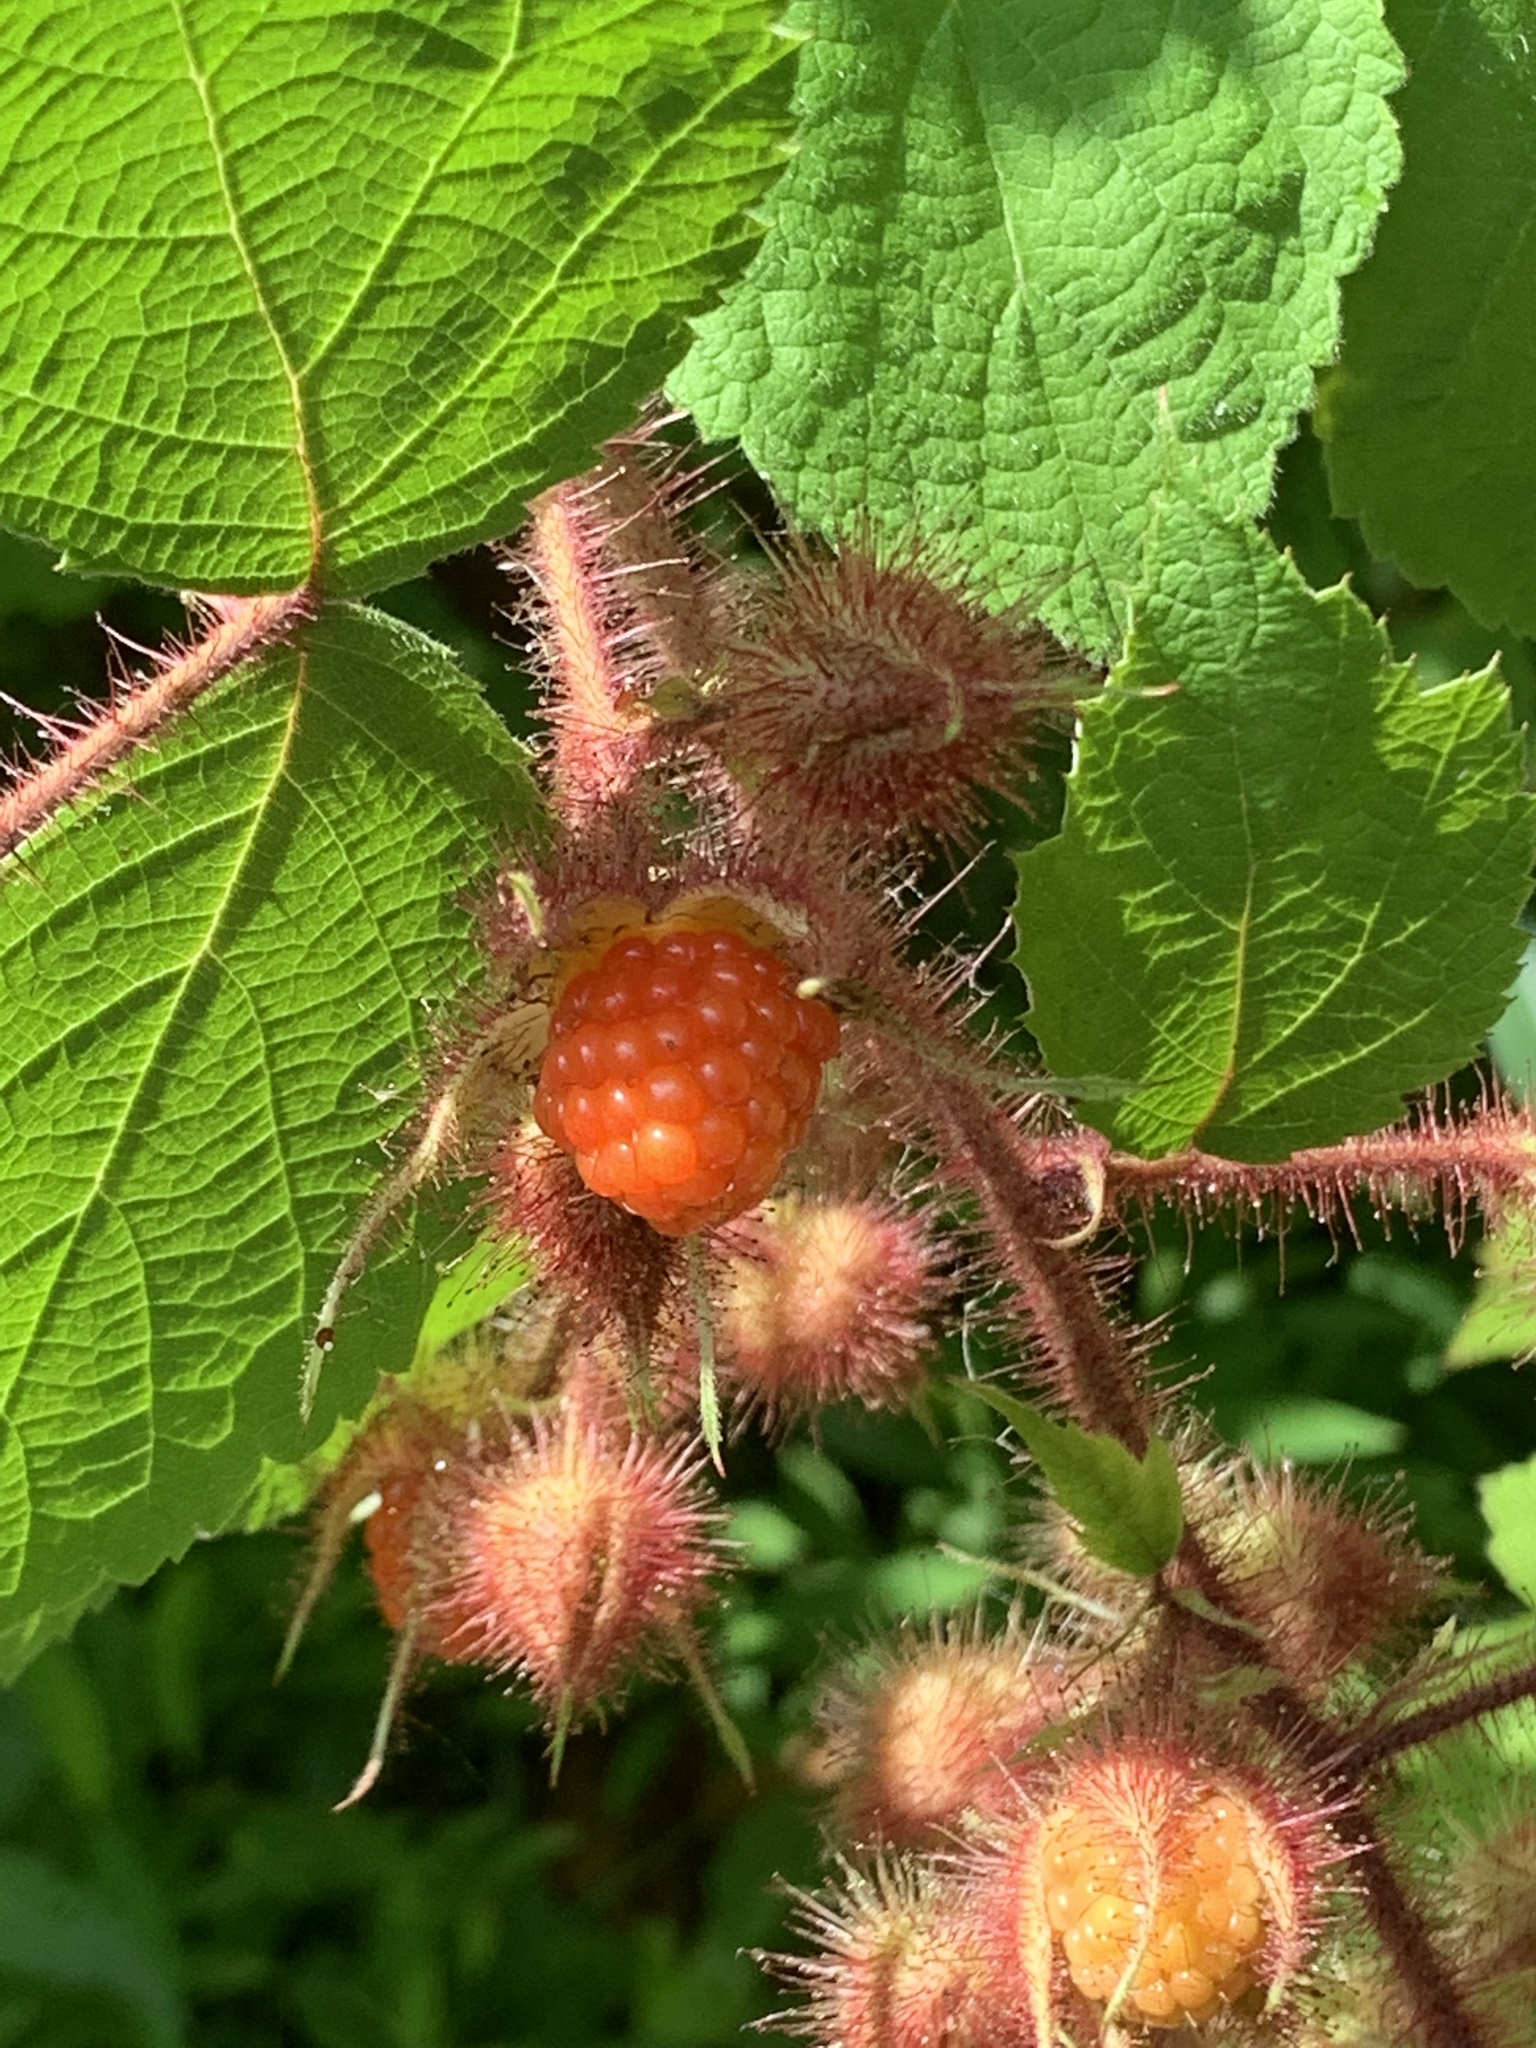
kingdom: Plantae
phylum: Tracheophyta
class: Magnoliopsida
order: Rosales
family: Rosaceae
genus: Rubus
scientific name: Rubus phoenicolasius
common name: Japanese wineberry
